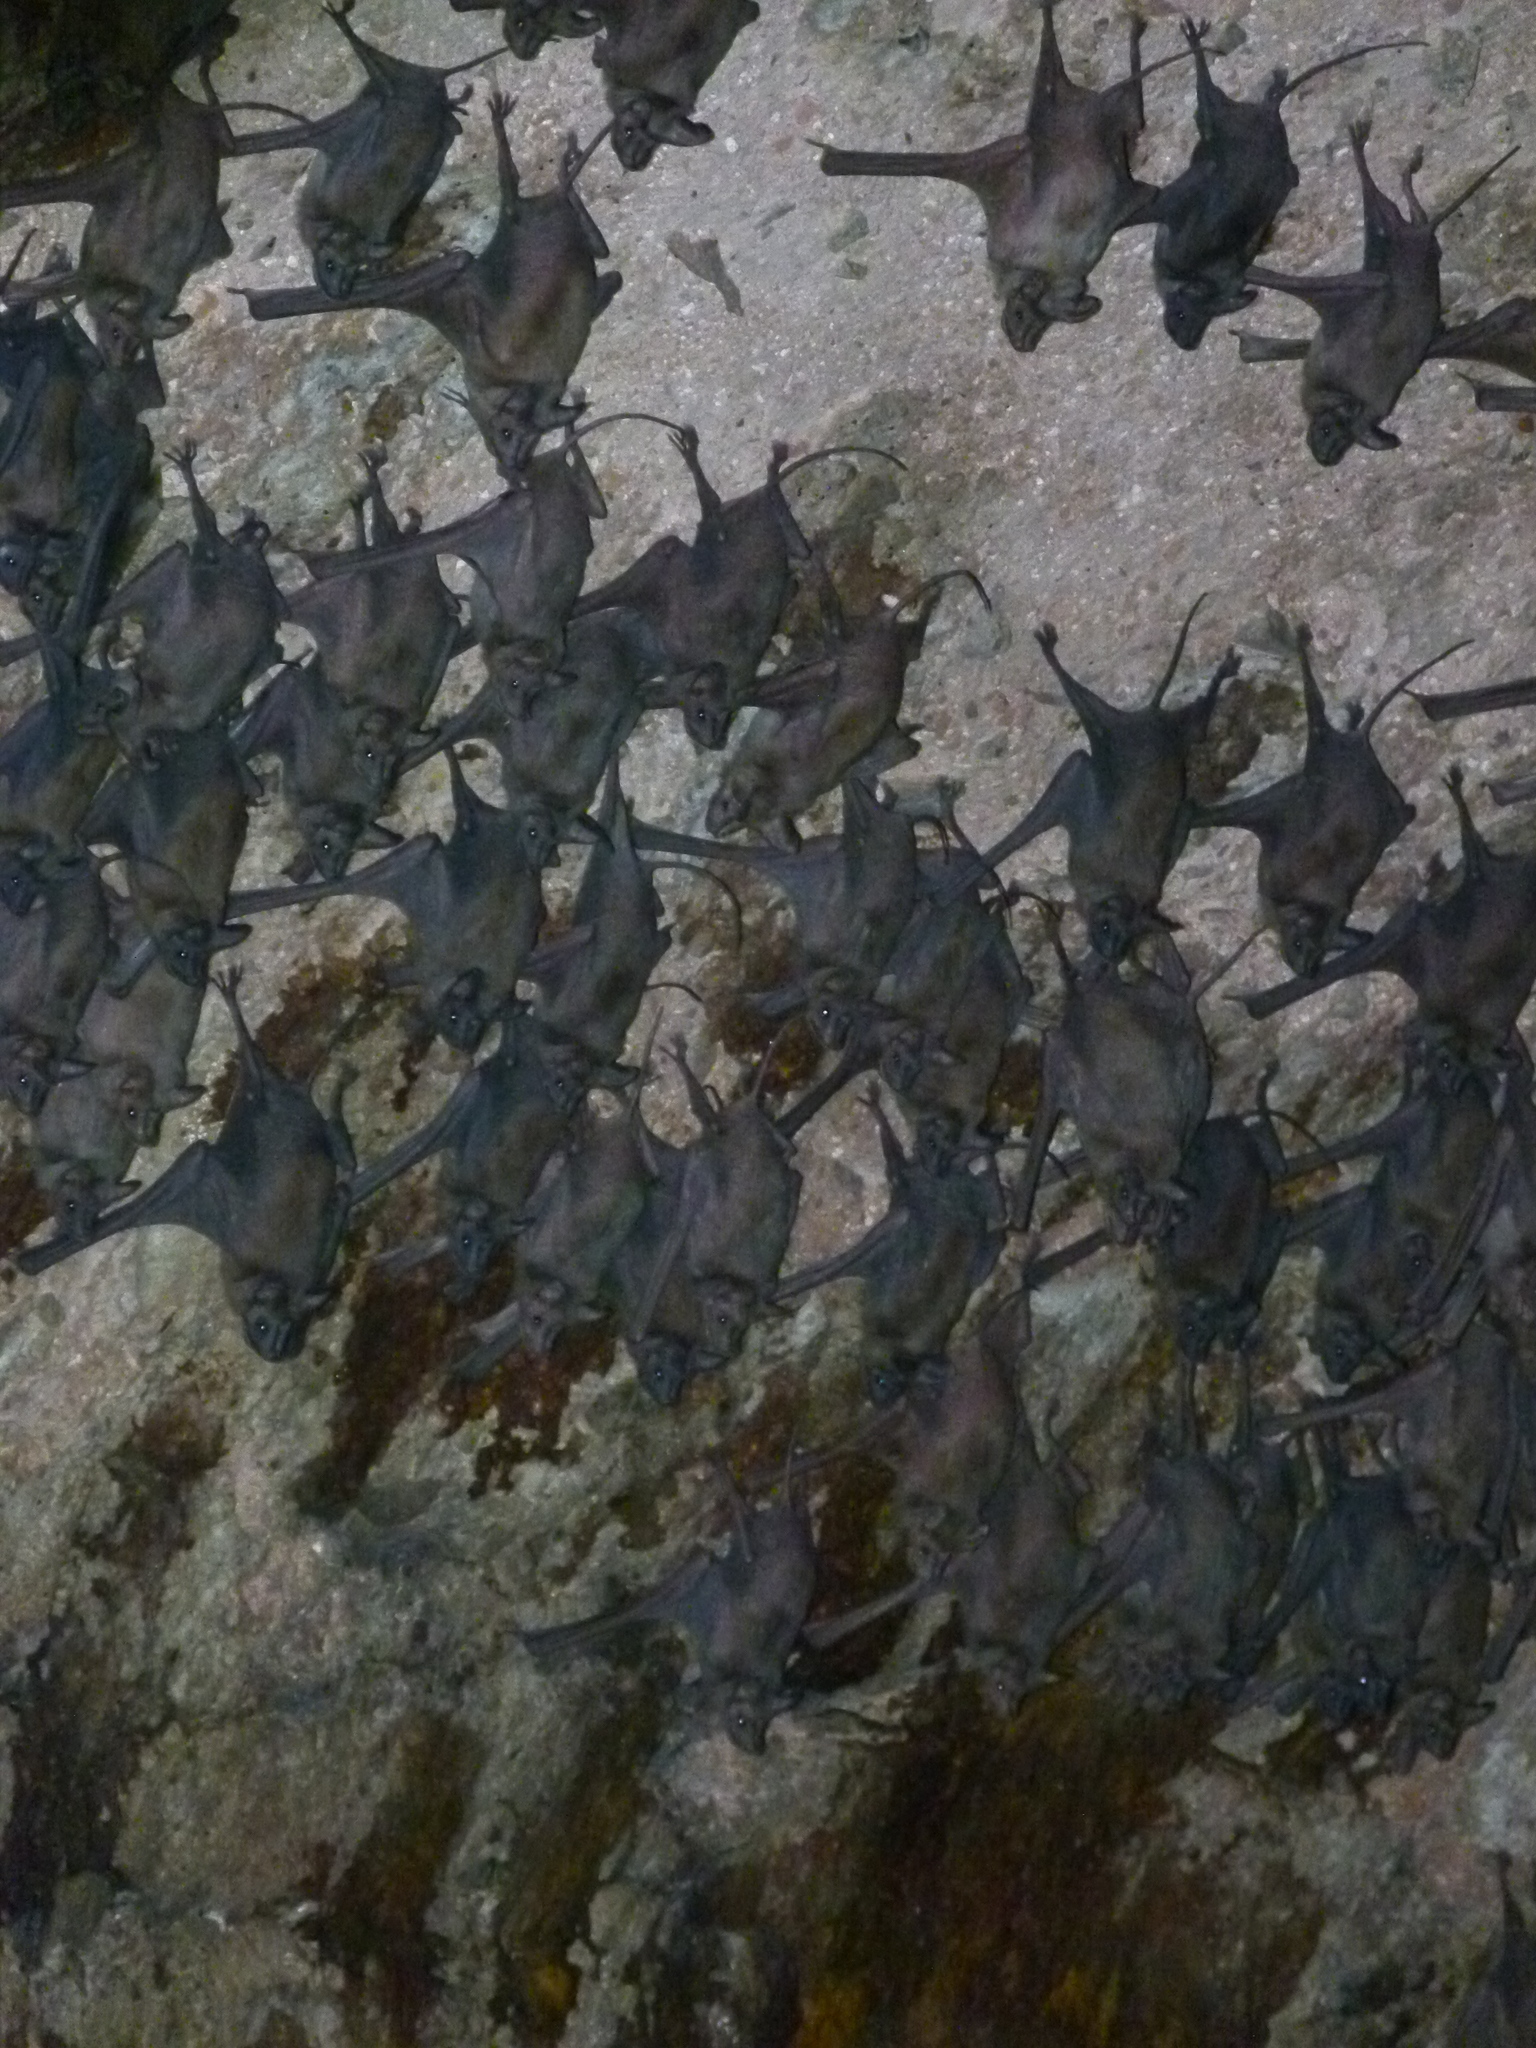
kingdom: Animalia
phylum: Chordata
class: Mammalia
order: Chiroptera
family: Rhinopomatidae
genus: Rhinopoma
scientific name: Rhinopoma microphyllum
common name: Greater mouse-tailed bat
